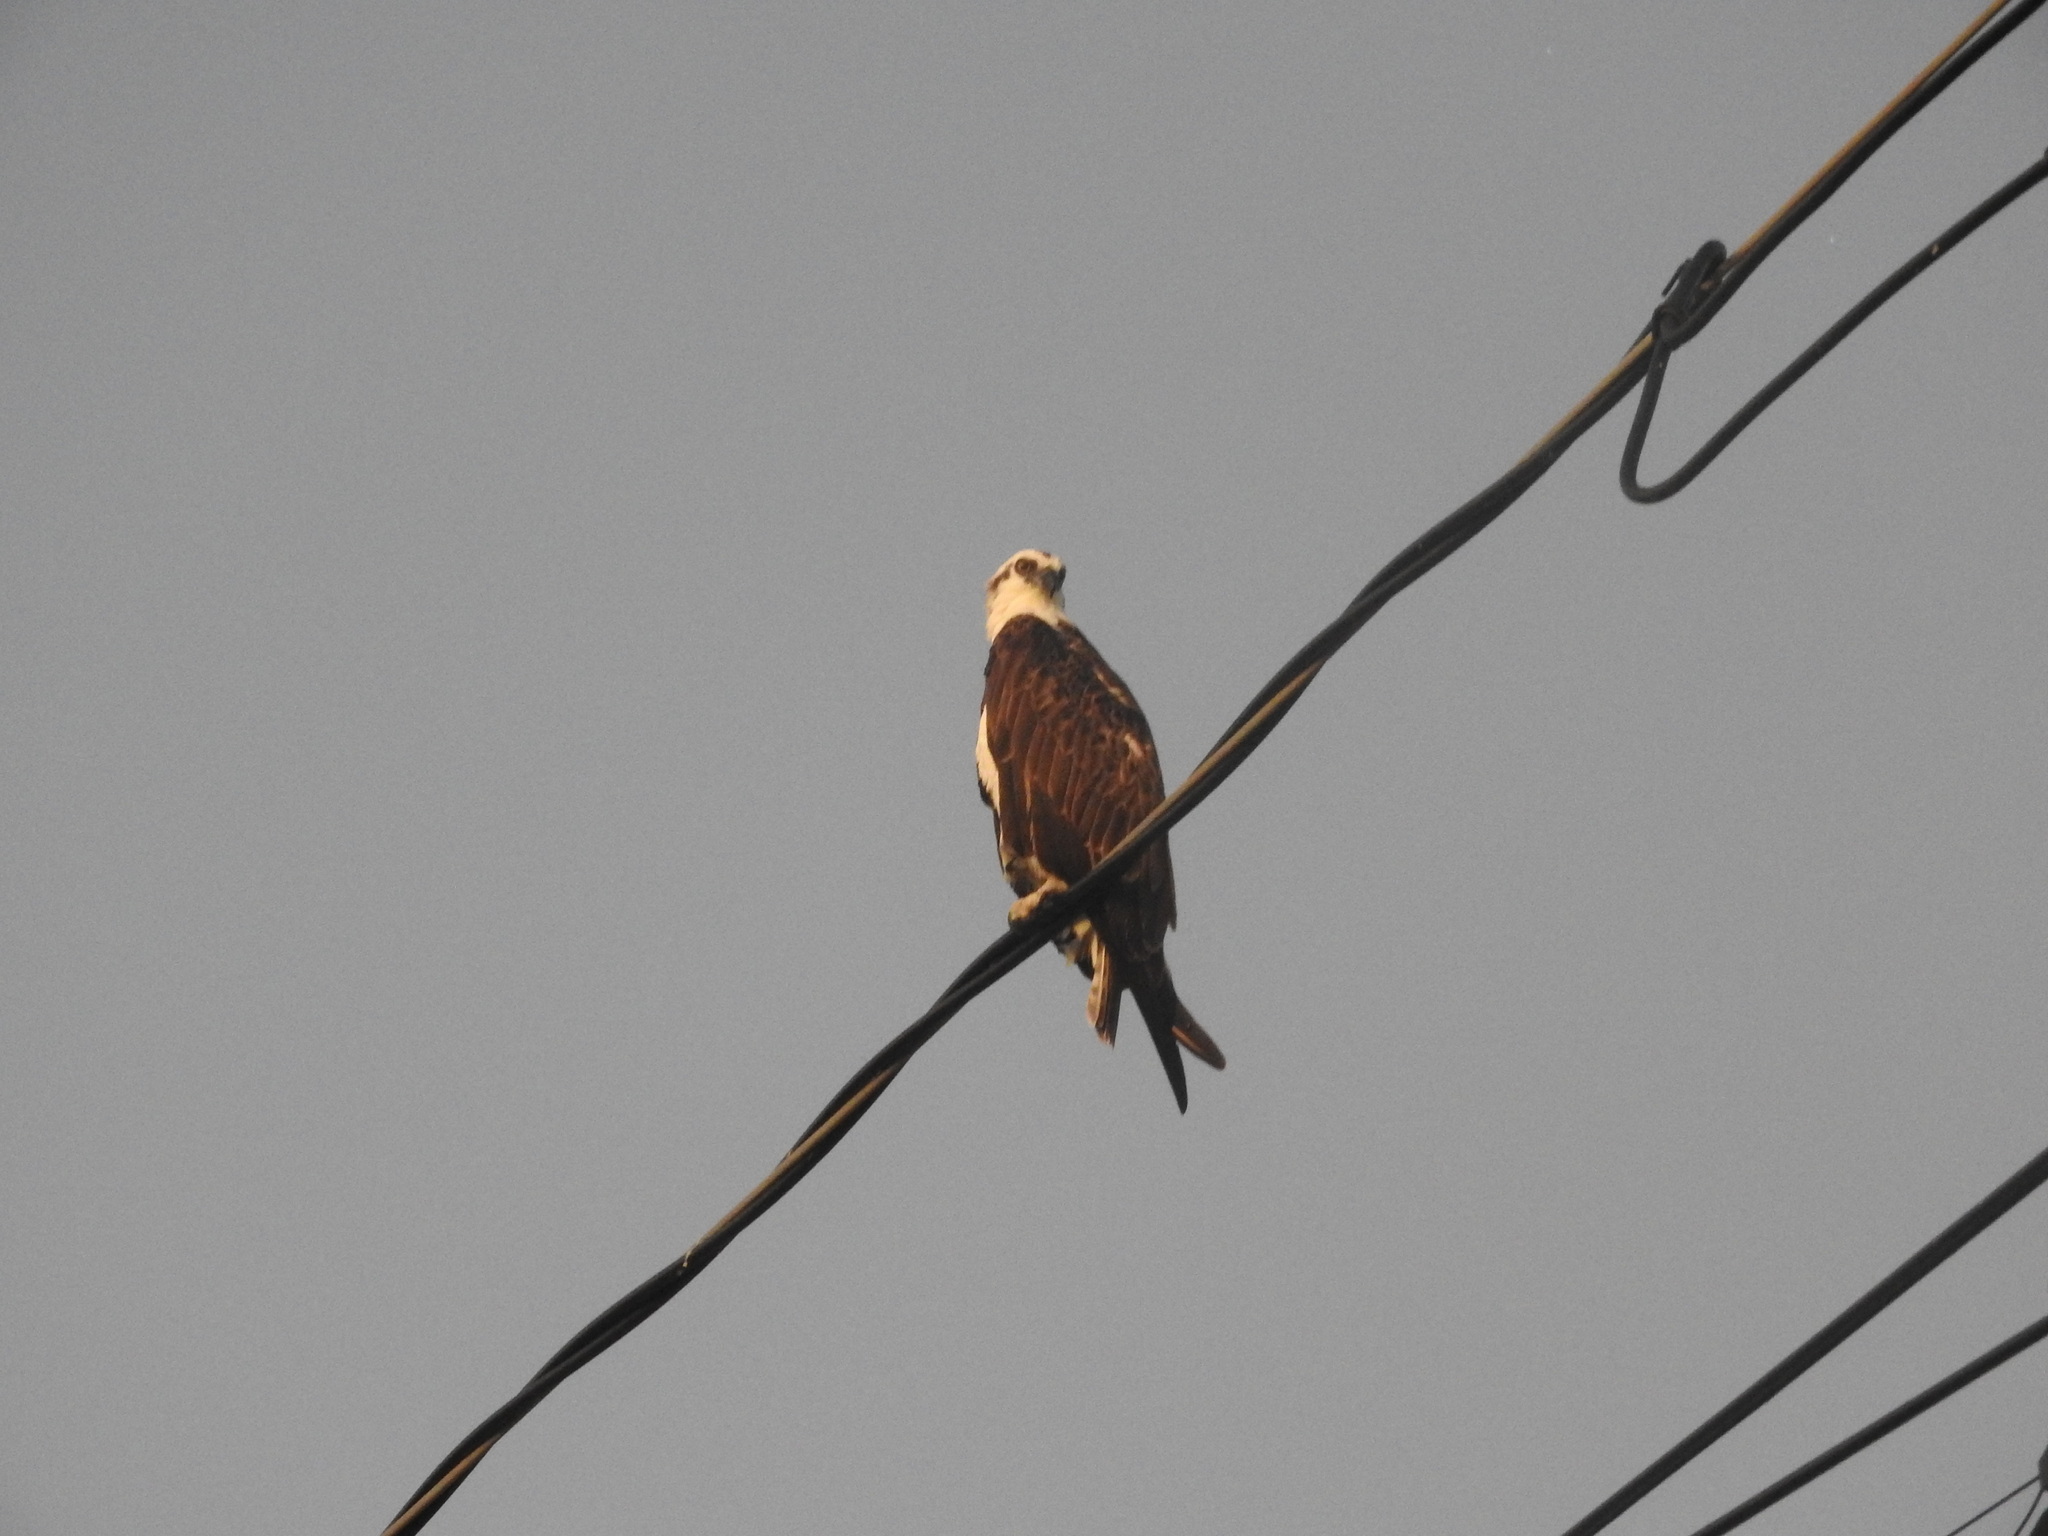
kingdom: Animalia
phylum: Chordata
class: Aves
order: Accipitriformes
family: Pandionidae
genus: Pandion
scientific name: Pandion haliaetus
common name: Osprey
